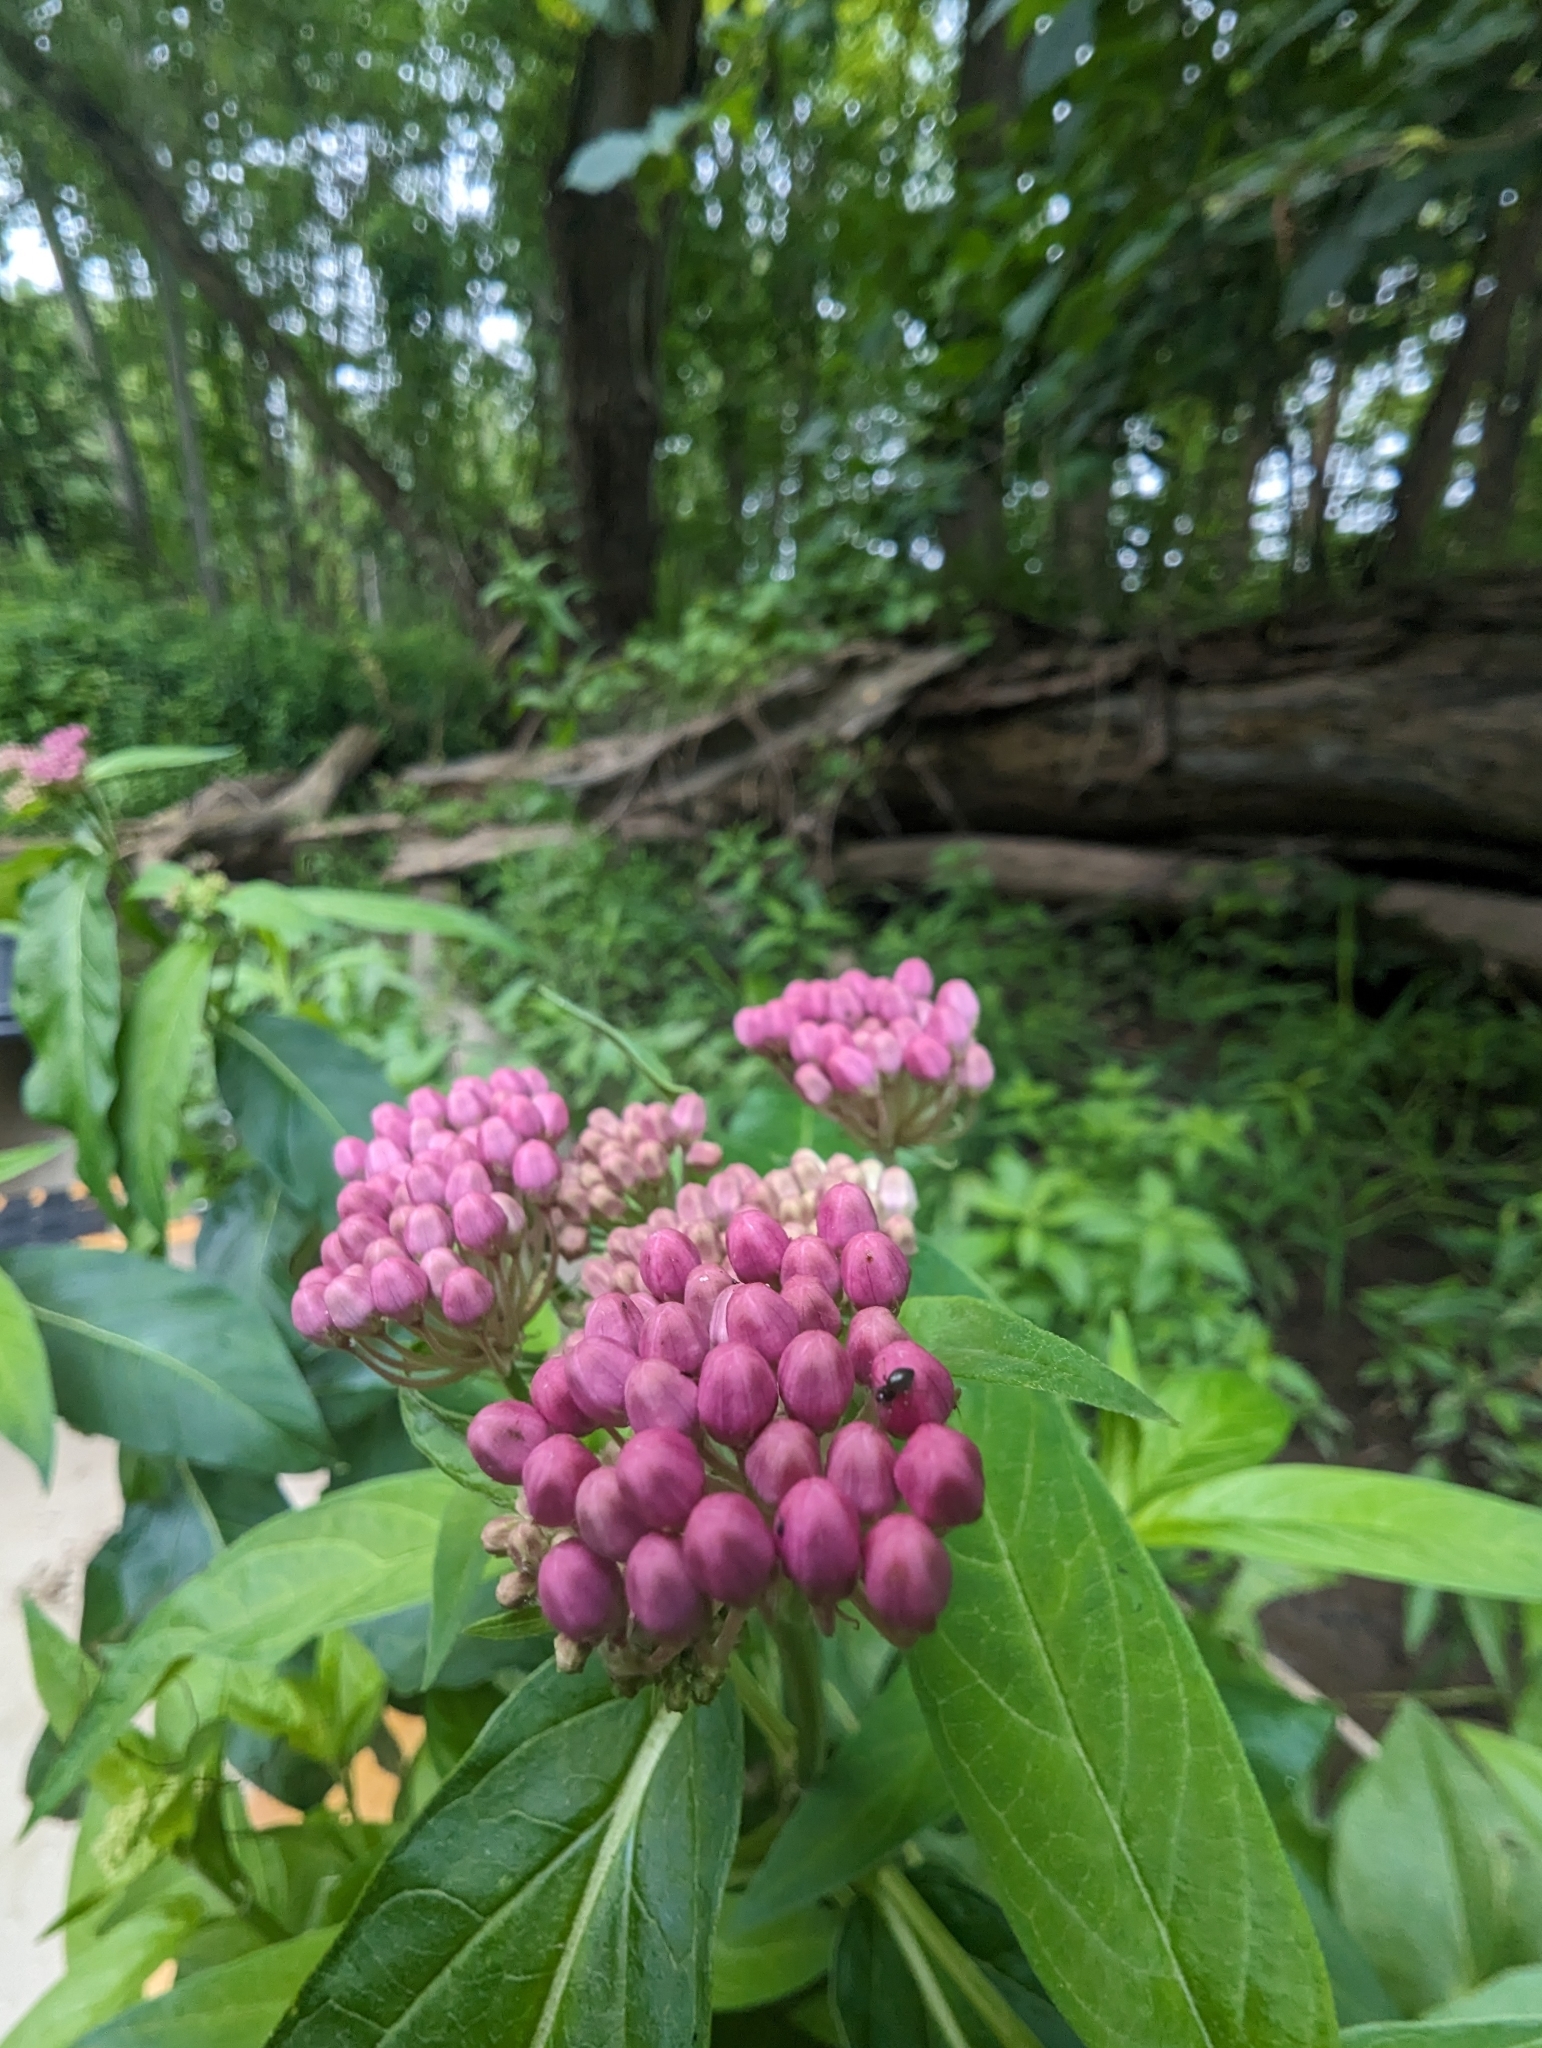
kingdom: Plantae
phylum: Tracheophyta
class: Magnoliopsida
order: Gentianales
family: Apocynaceae
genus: Asclepias
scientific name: Asclepias incarnata
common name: Swamp milkweed
